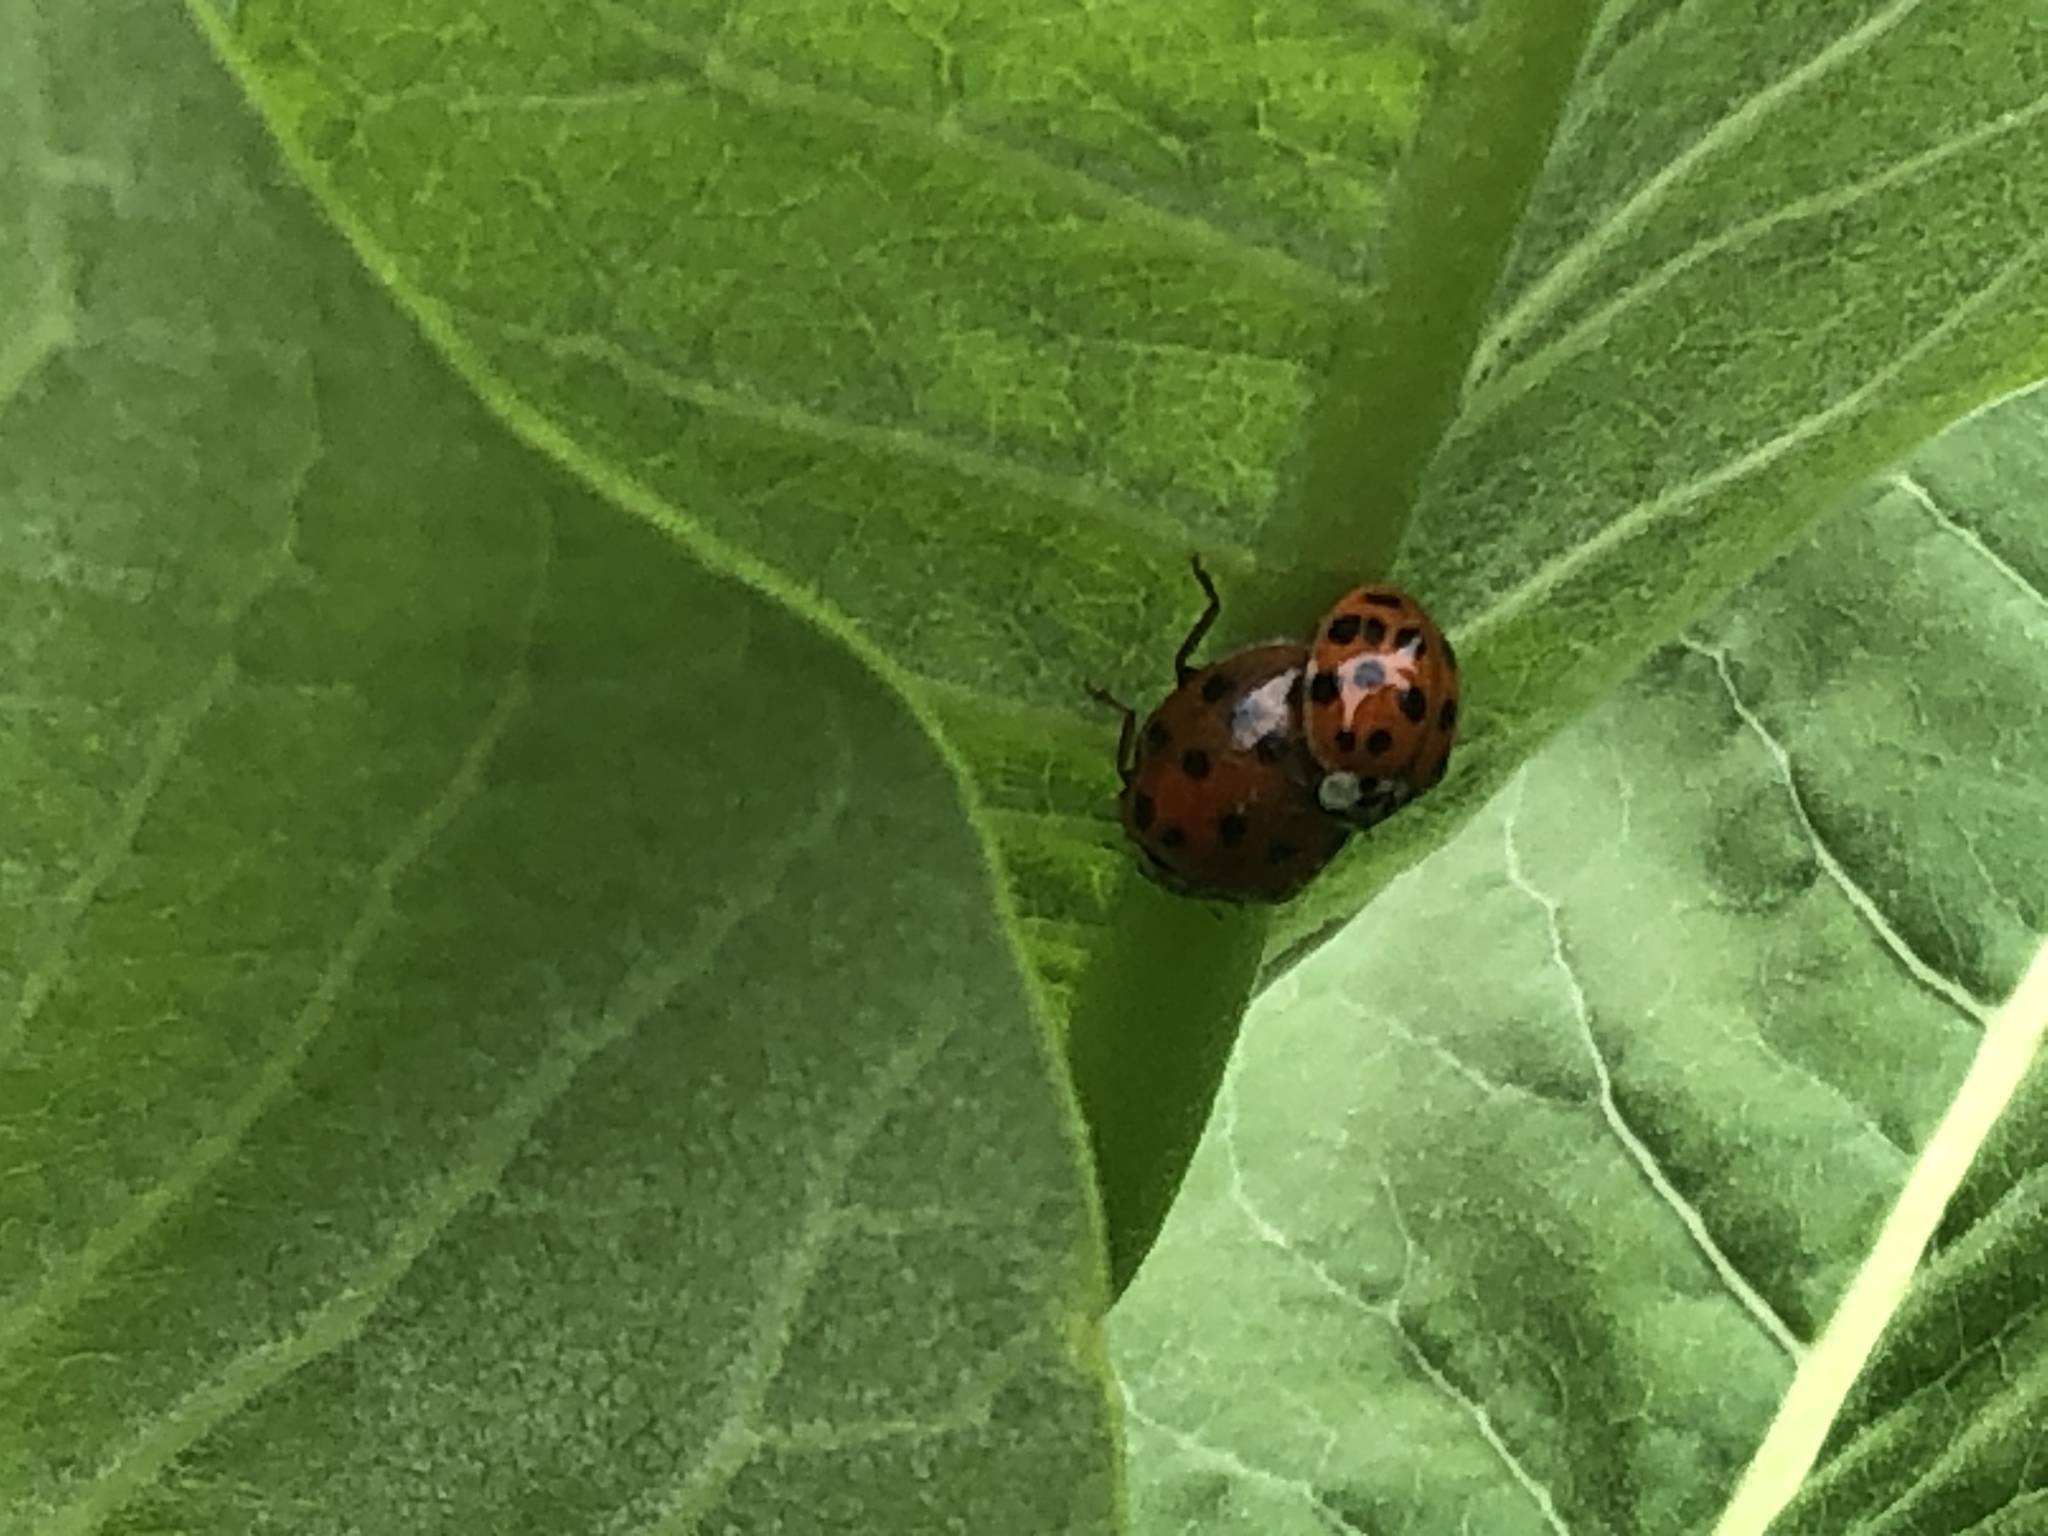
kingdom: Animalia
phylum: Arthropoda
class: Insecta
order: Coleoptera
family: Coccinellidae
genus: Harmonia
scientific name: Harmonia axyridis
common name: Harlequin ladybird
